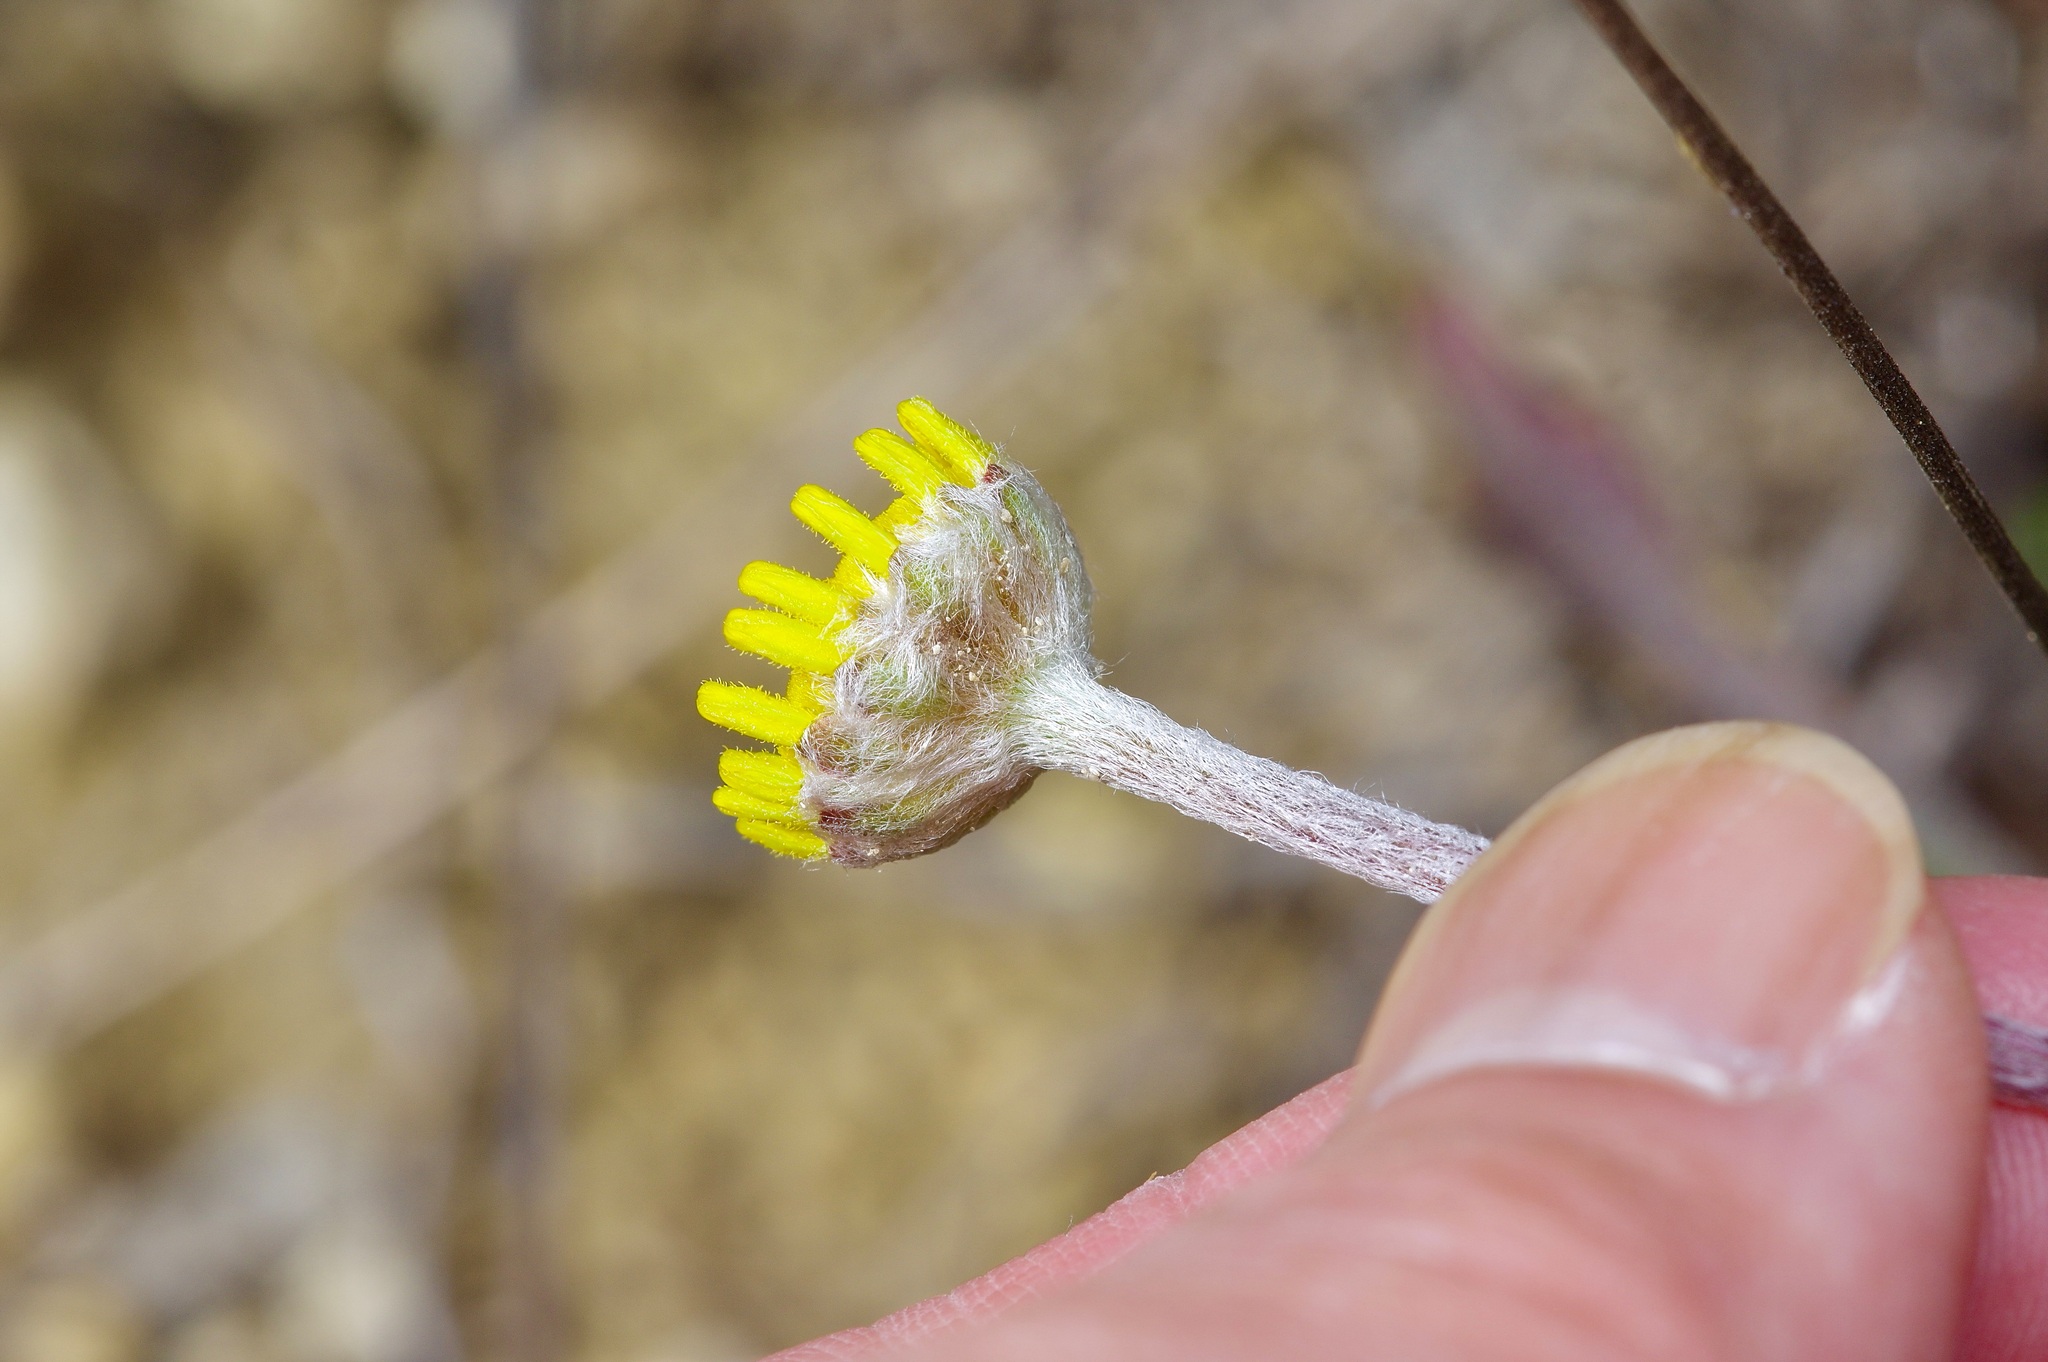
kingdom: Plantae
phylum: Tracheophyta
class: Magnoliopsida
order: Asterales
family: Asteraceae
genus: Tetraneuris
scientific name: Tetraneuris scaposa
